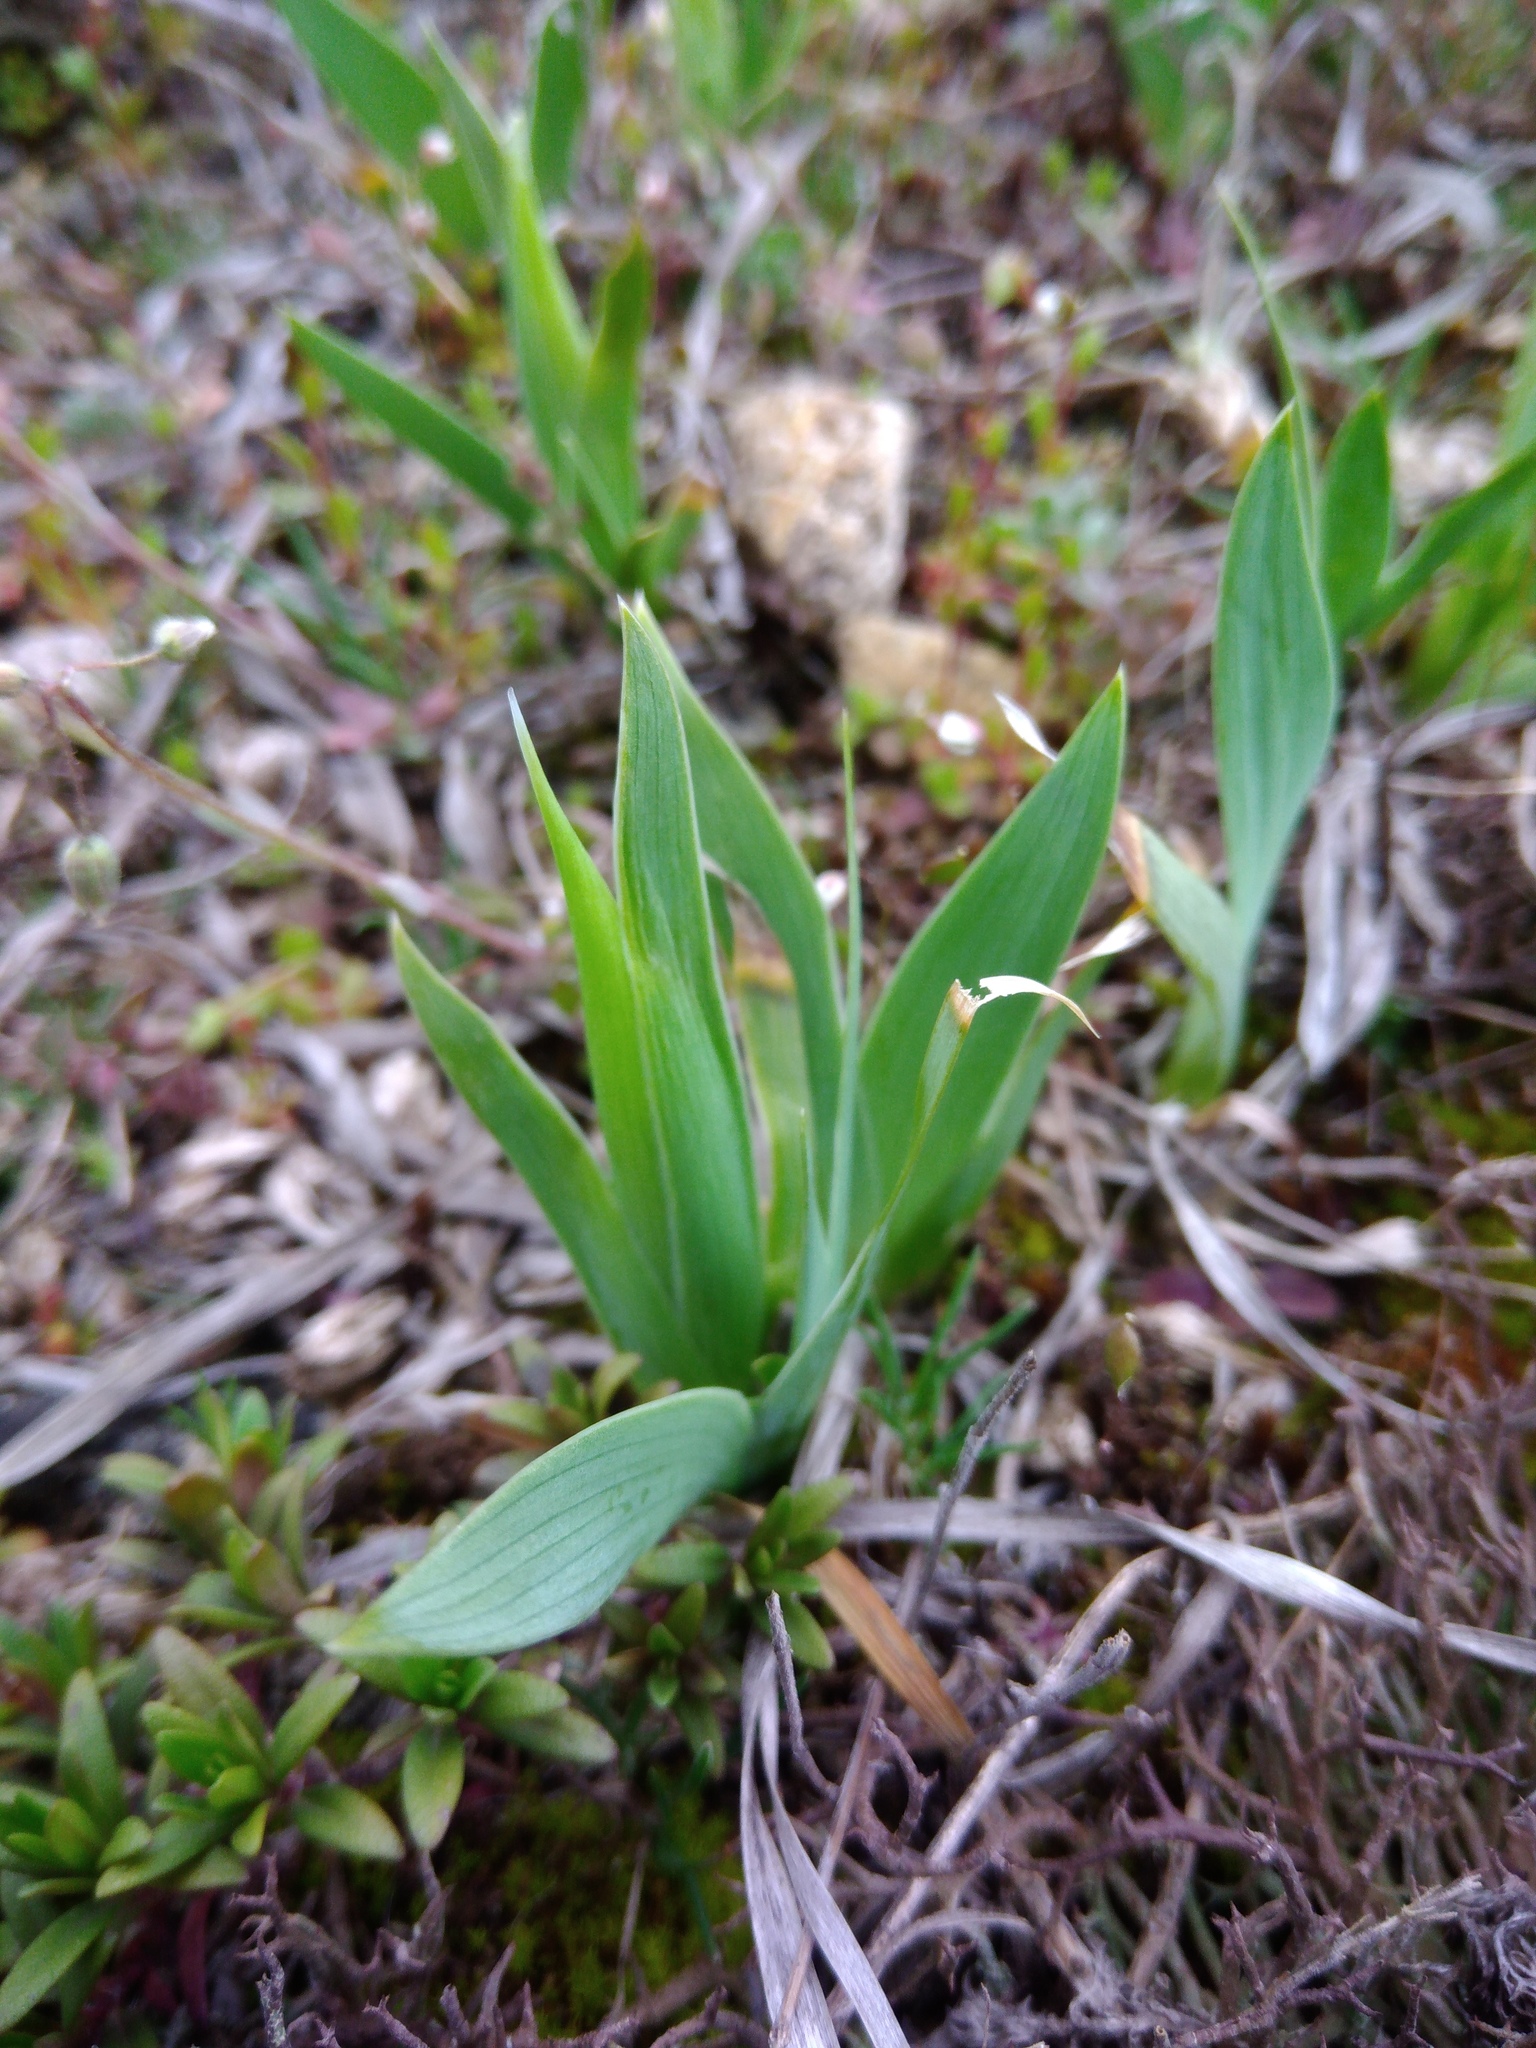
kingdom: Plantae
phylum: Tracheophyta
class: Liliopsida
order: Asparagales
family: Iridaceae
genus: Iris
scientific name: Iris pumila
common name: Dwarf iris
